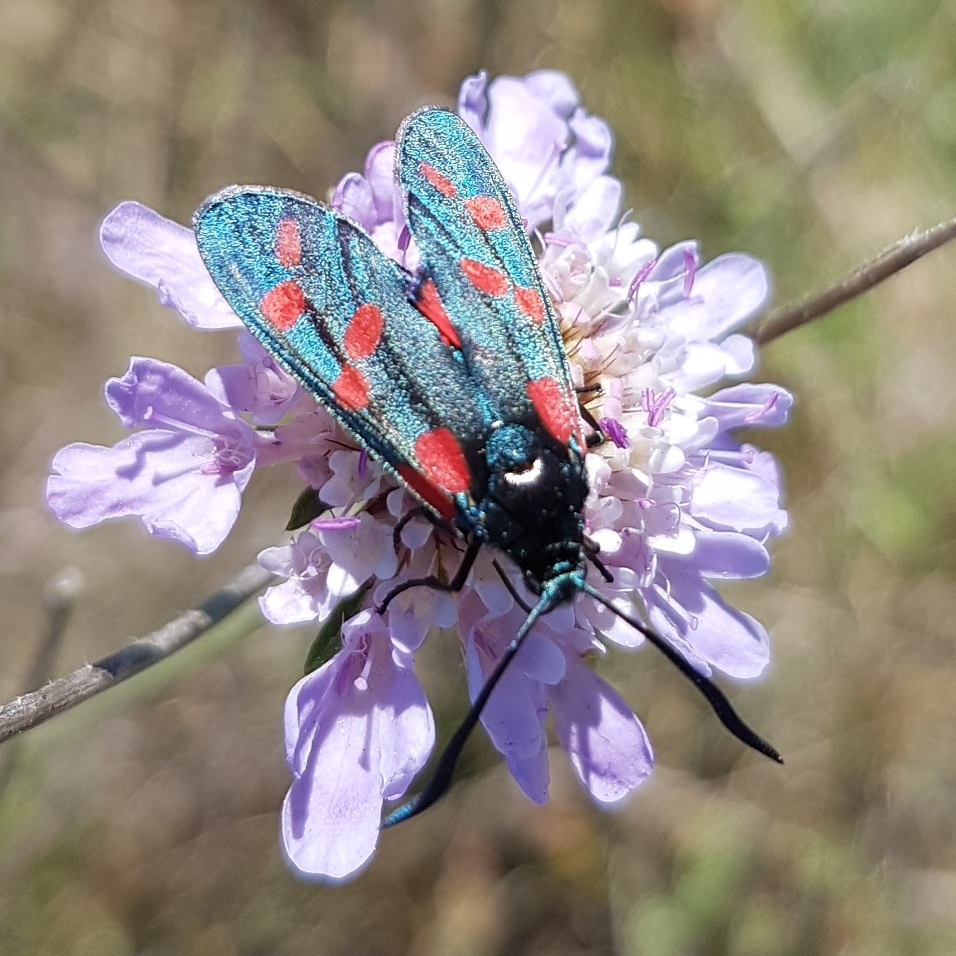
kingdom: Animalia
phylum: Arthropoda
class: Insecta
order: Lepidoptera
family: Zygaenidae
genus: Zygaena
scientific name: Zygaena filipendulae
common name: Six-spot burnet
